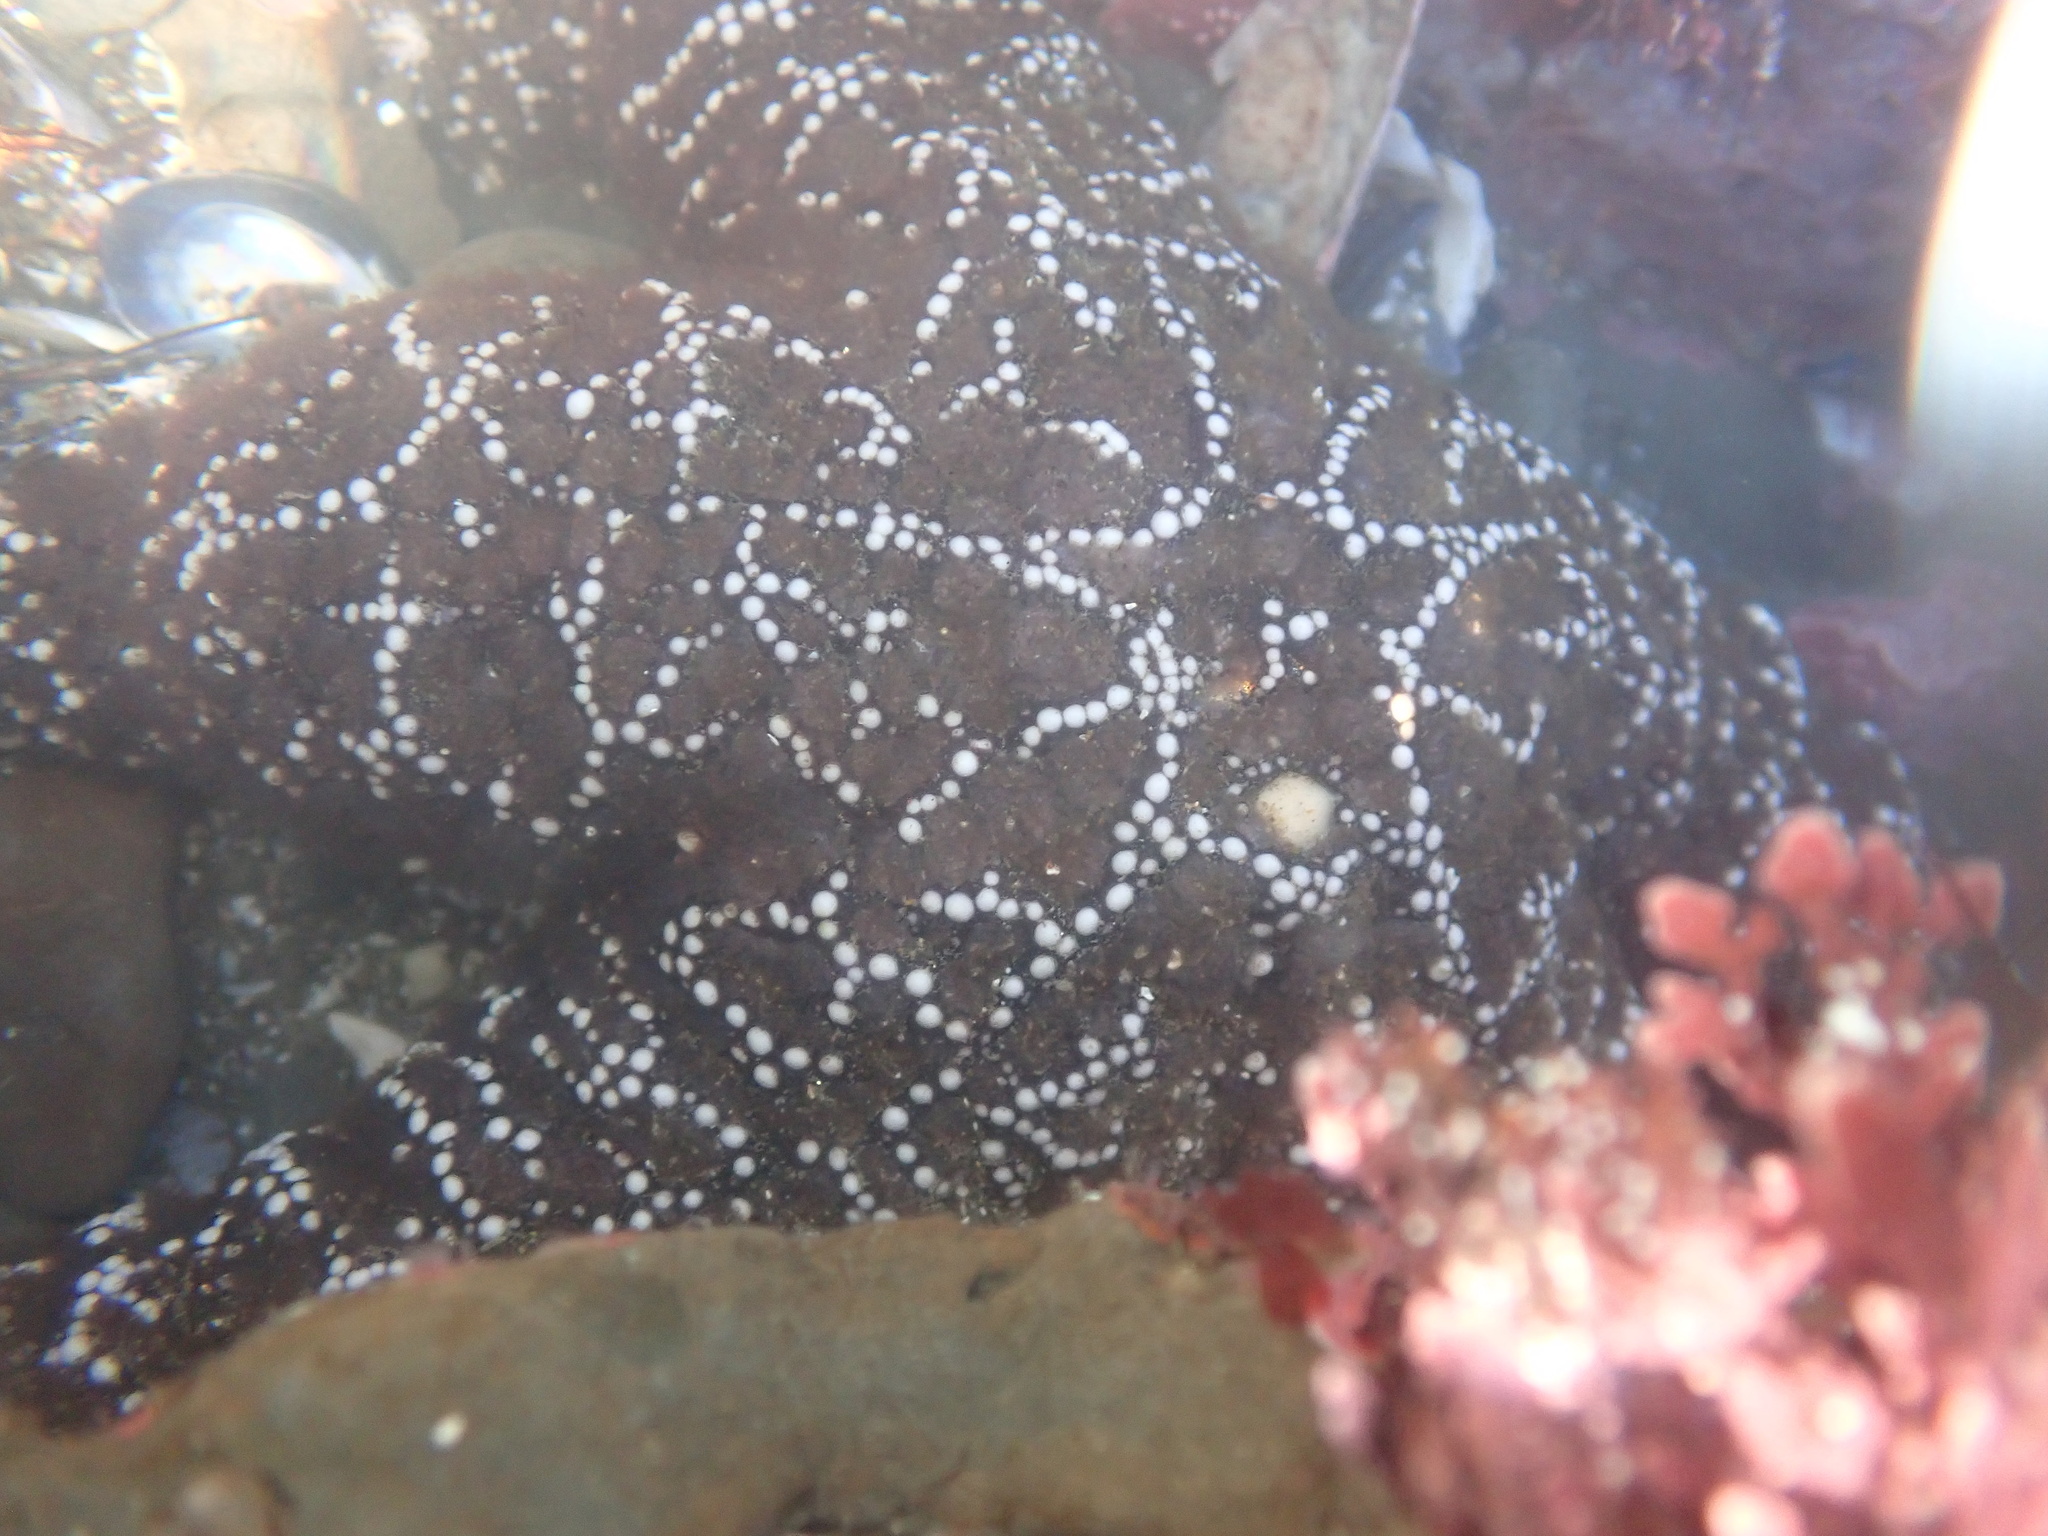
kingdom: Animalia
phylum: Echinodermata
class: Asteroidea
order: Forcipulatida
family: Asteriidae
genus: Pisaster
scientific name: Pisaster ochraceus
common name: Ochre stars
